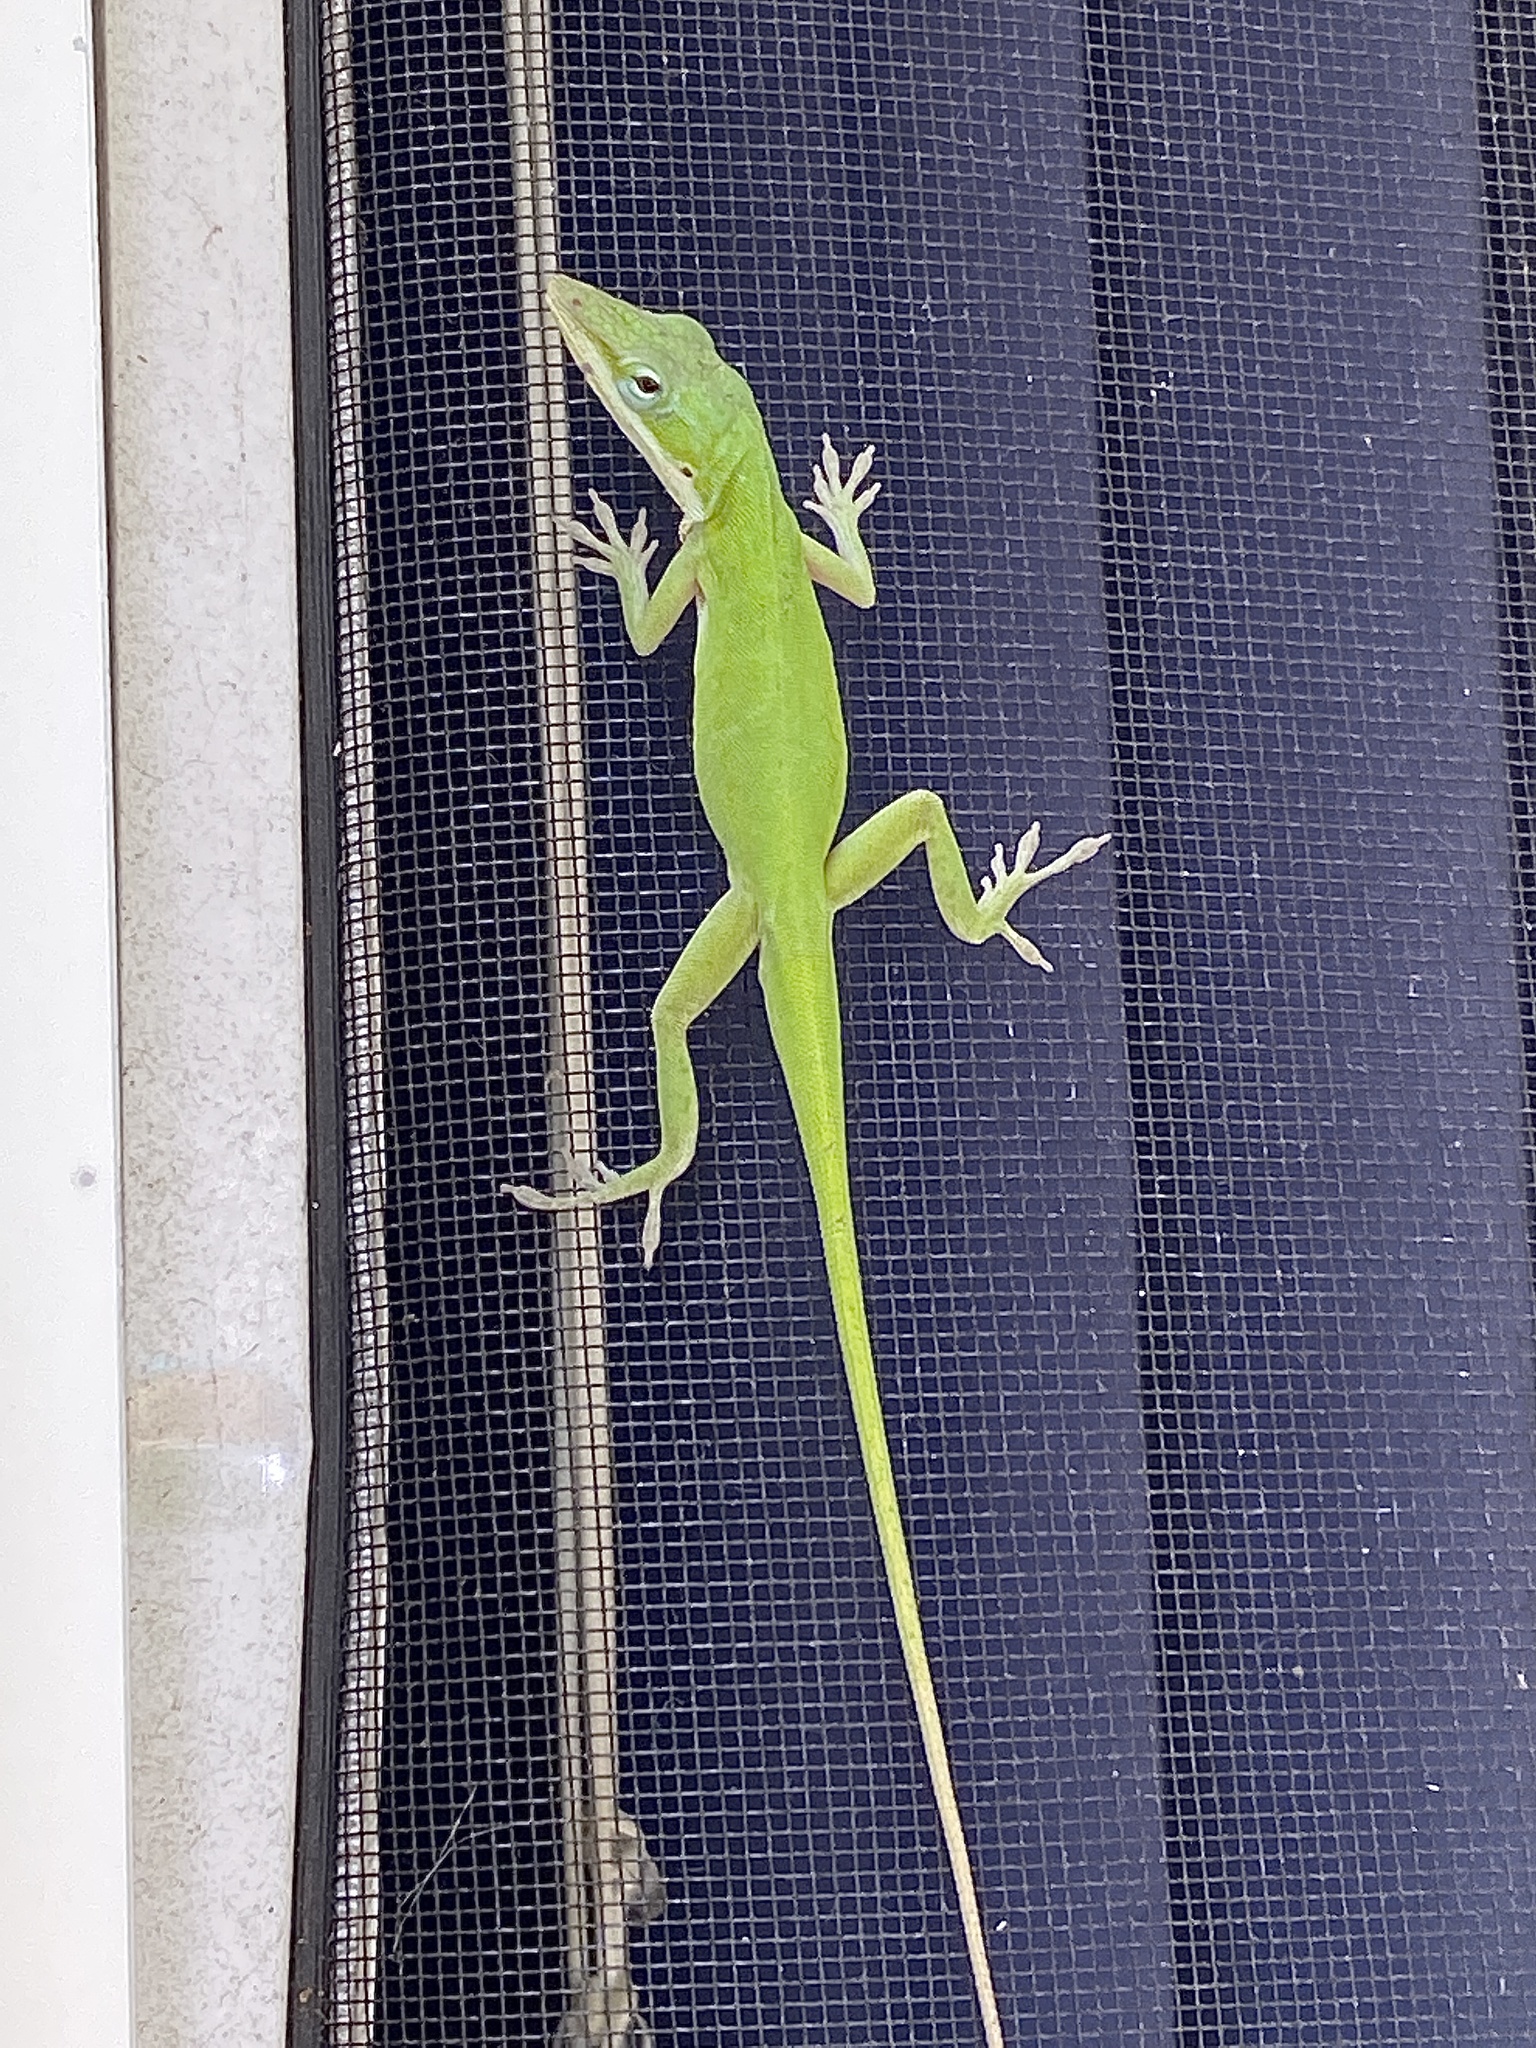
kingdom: Animalia
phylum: Chordata
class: Squamata
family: Dactyloidae
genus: Anolis
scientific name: Anolis carolinensis
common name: Green anole
